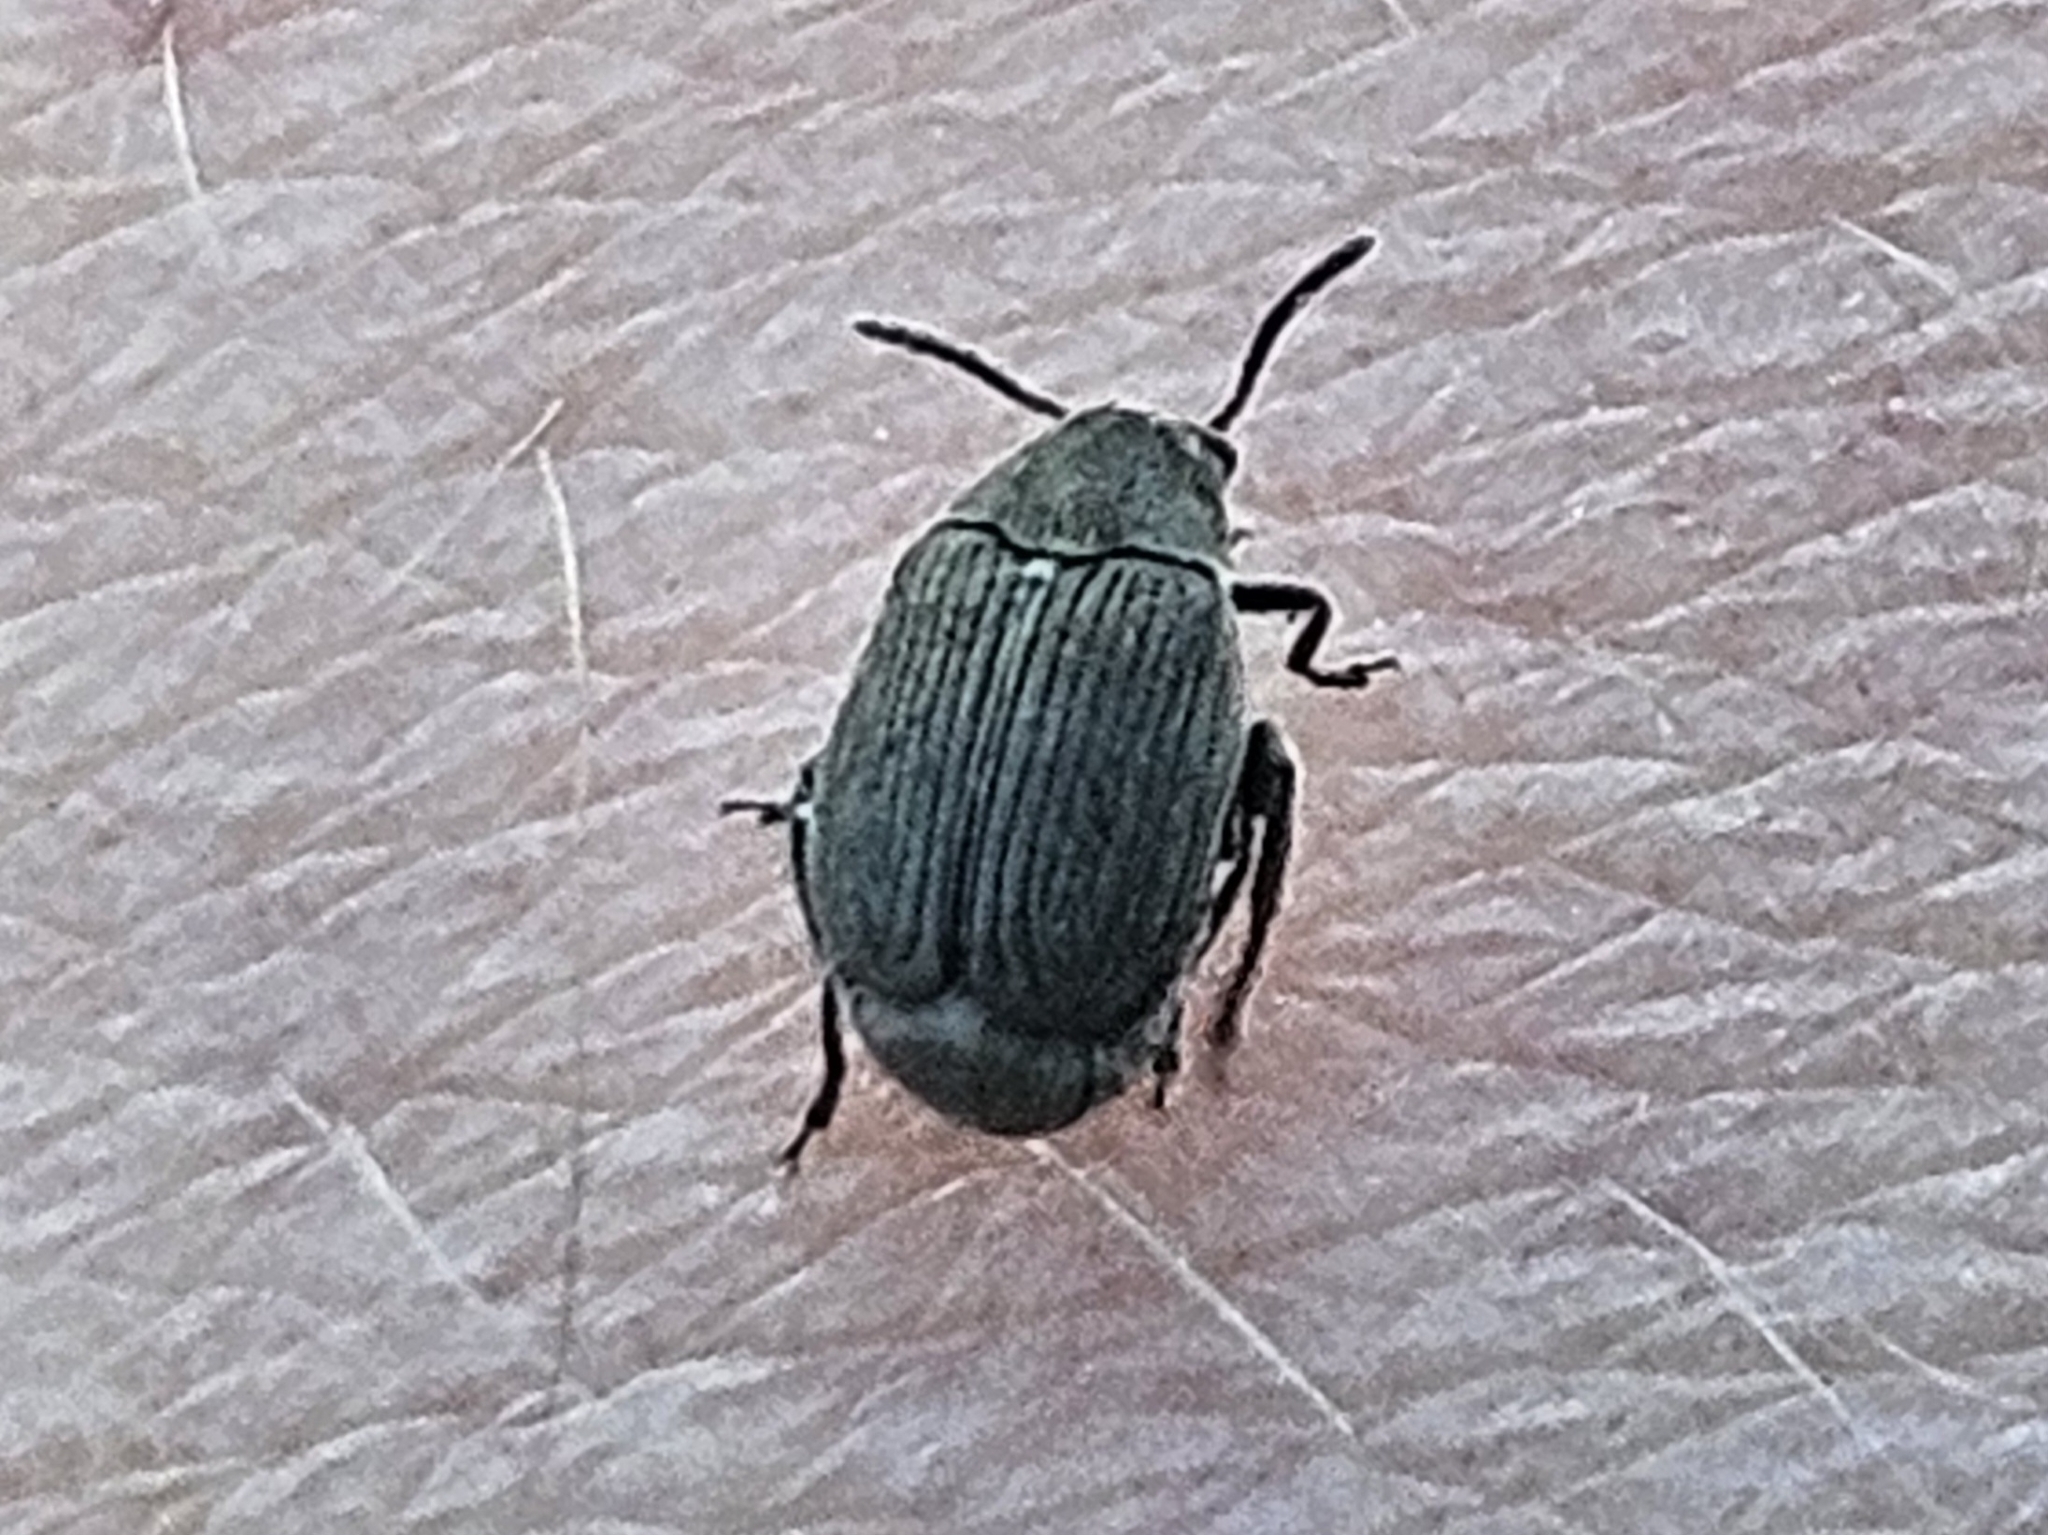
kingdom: Animalia
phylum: Arthropoda
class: Insecta
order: Coleoptera
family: Chrysomelidae
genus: Bruchidius
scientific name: Bruchidius villosus
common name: Scotch broom bruchid
